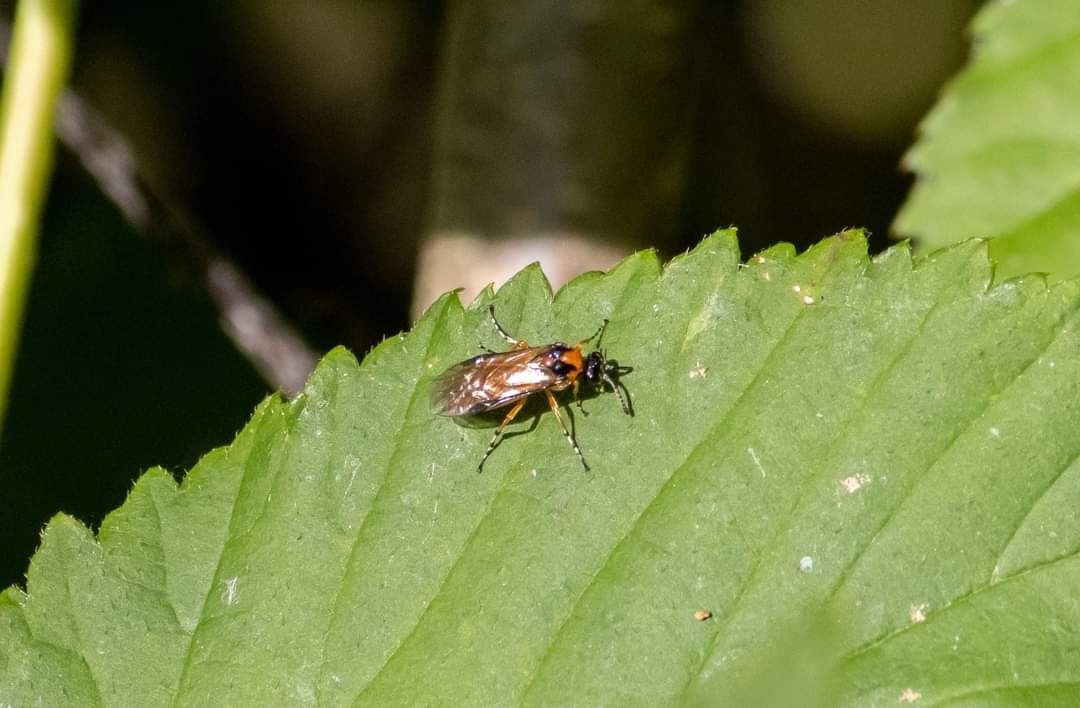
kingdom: Animalia
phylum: Arthropoda
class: Insecta
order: Hymenoptera
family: Tenthredinidae
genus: Athalia
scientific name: Athalia rosae
